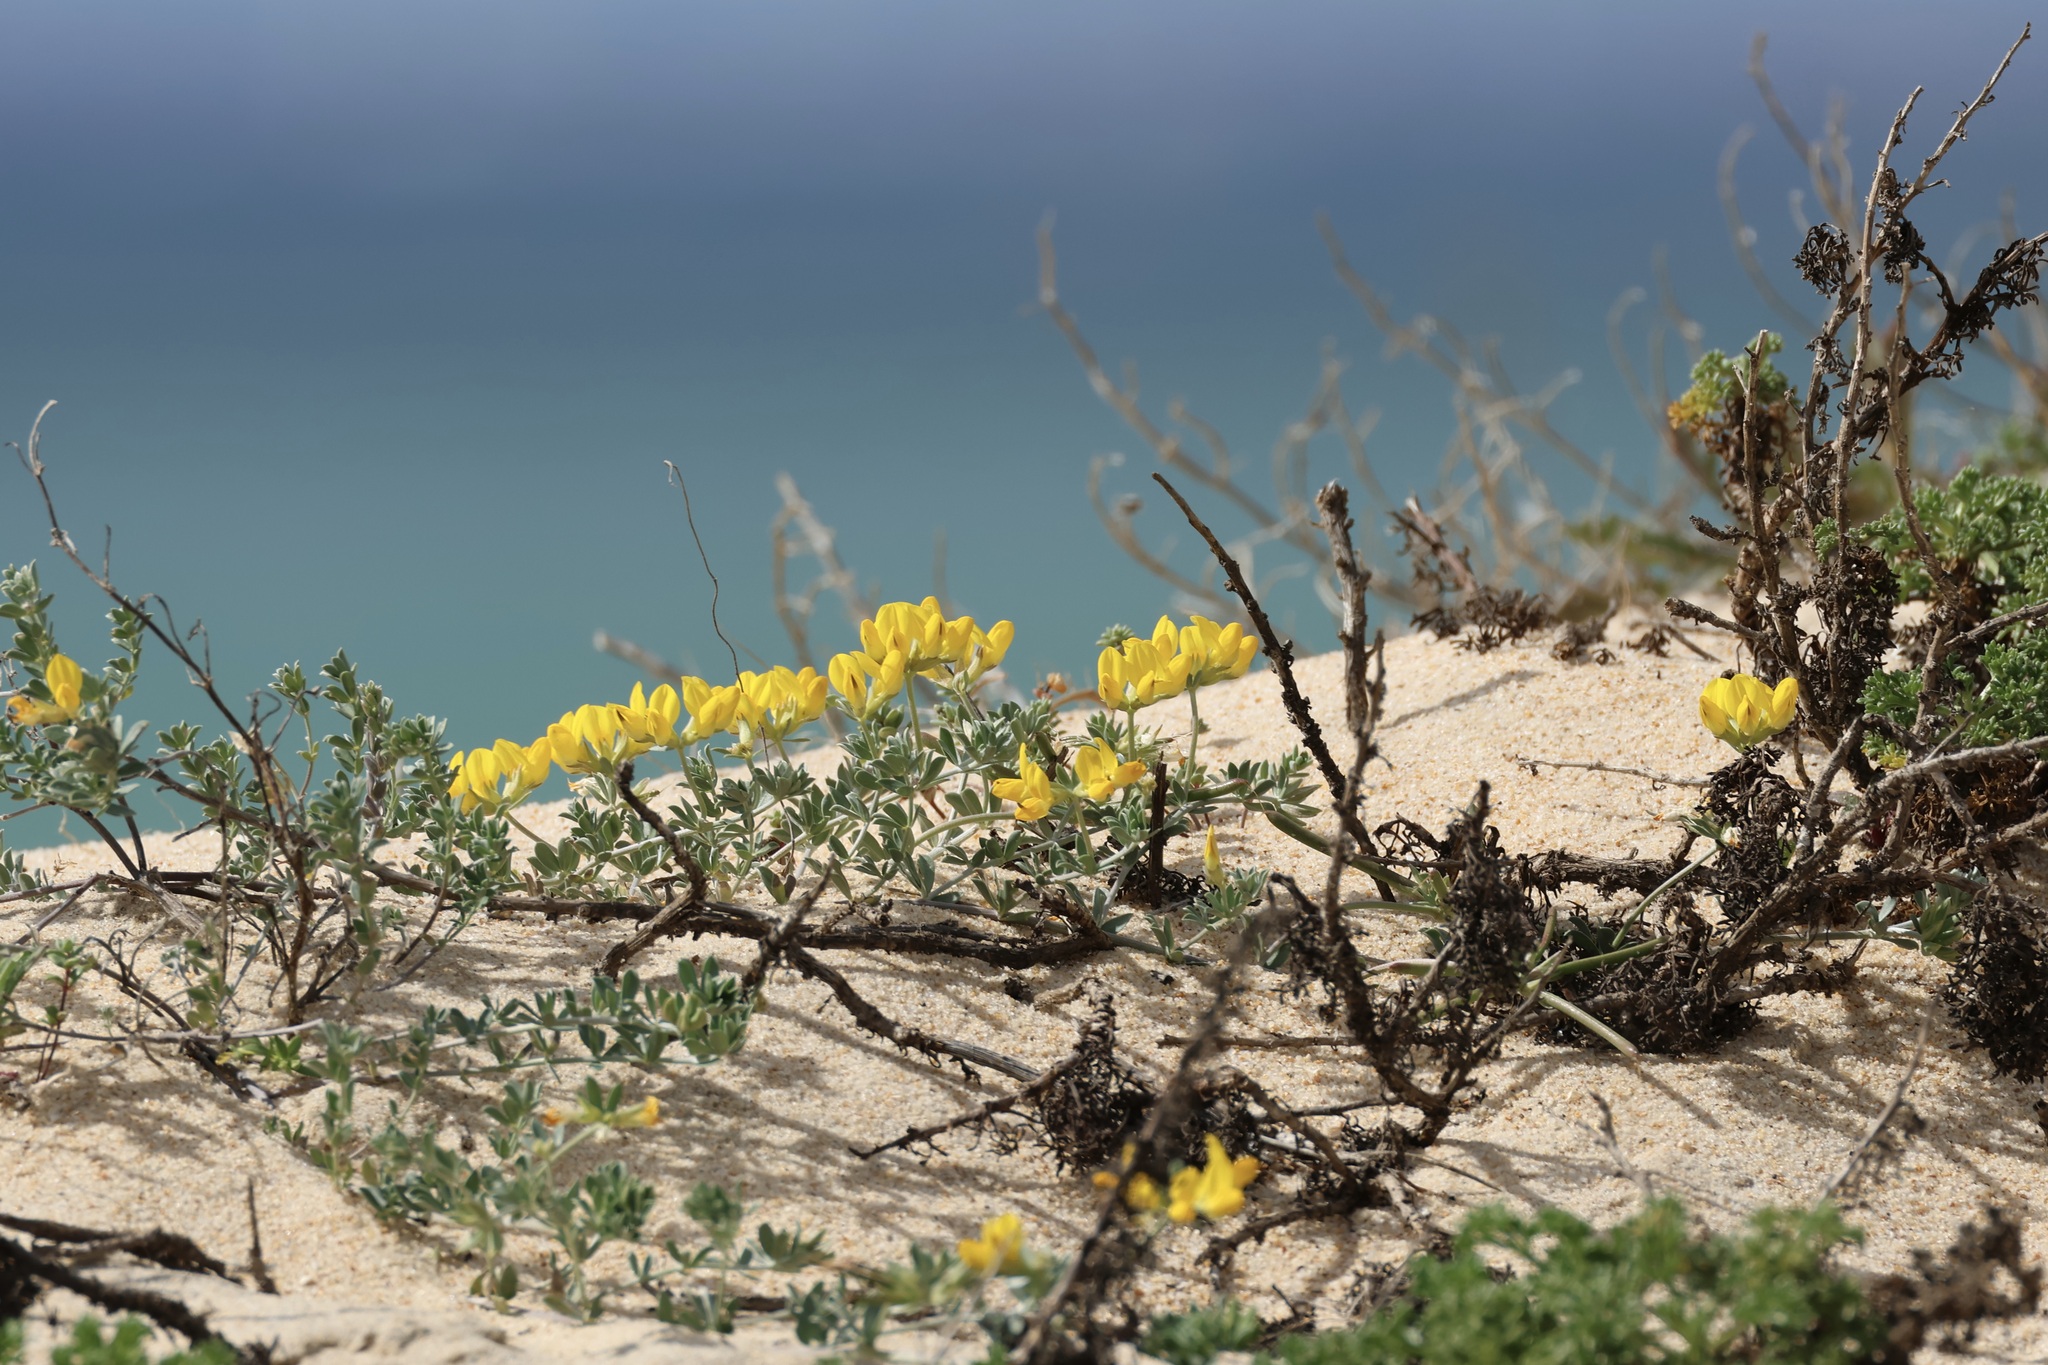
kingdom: Plantae
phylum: Tracheophyta
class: Magnoliopsida
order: Fabales
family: Fabaceae
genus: Lotus
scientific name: Lotus creticus
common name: Cretan bird's-foot trefoil
